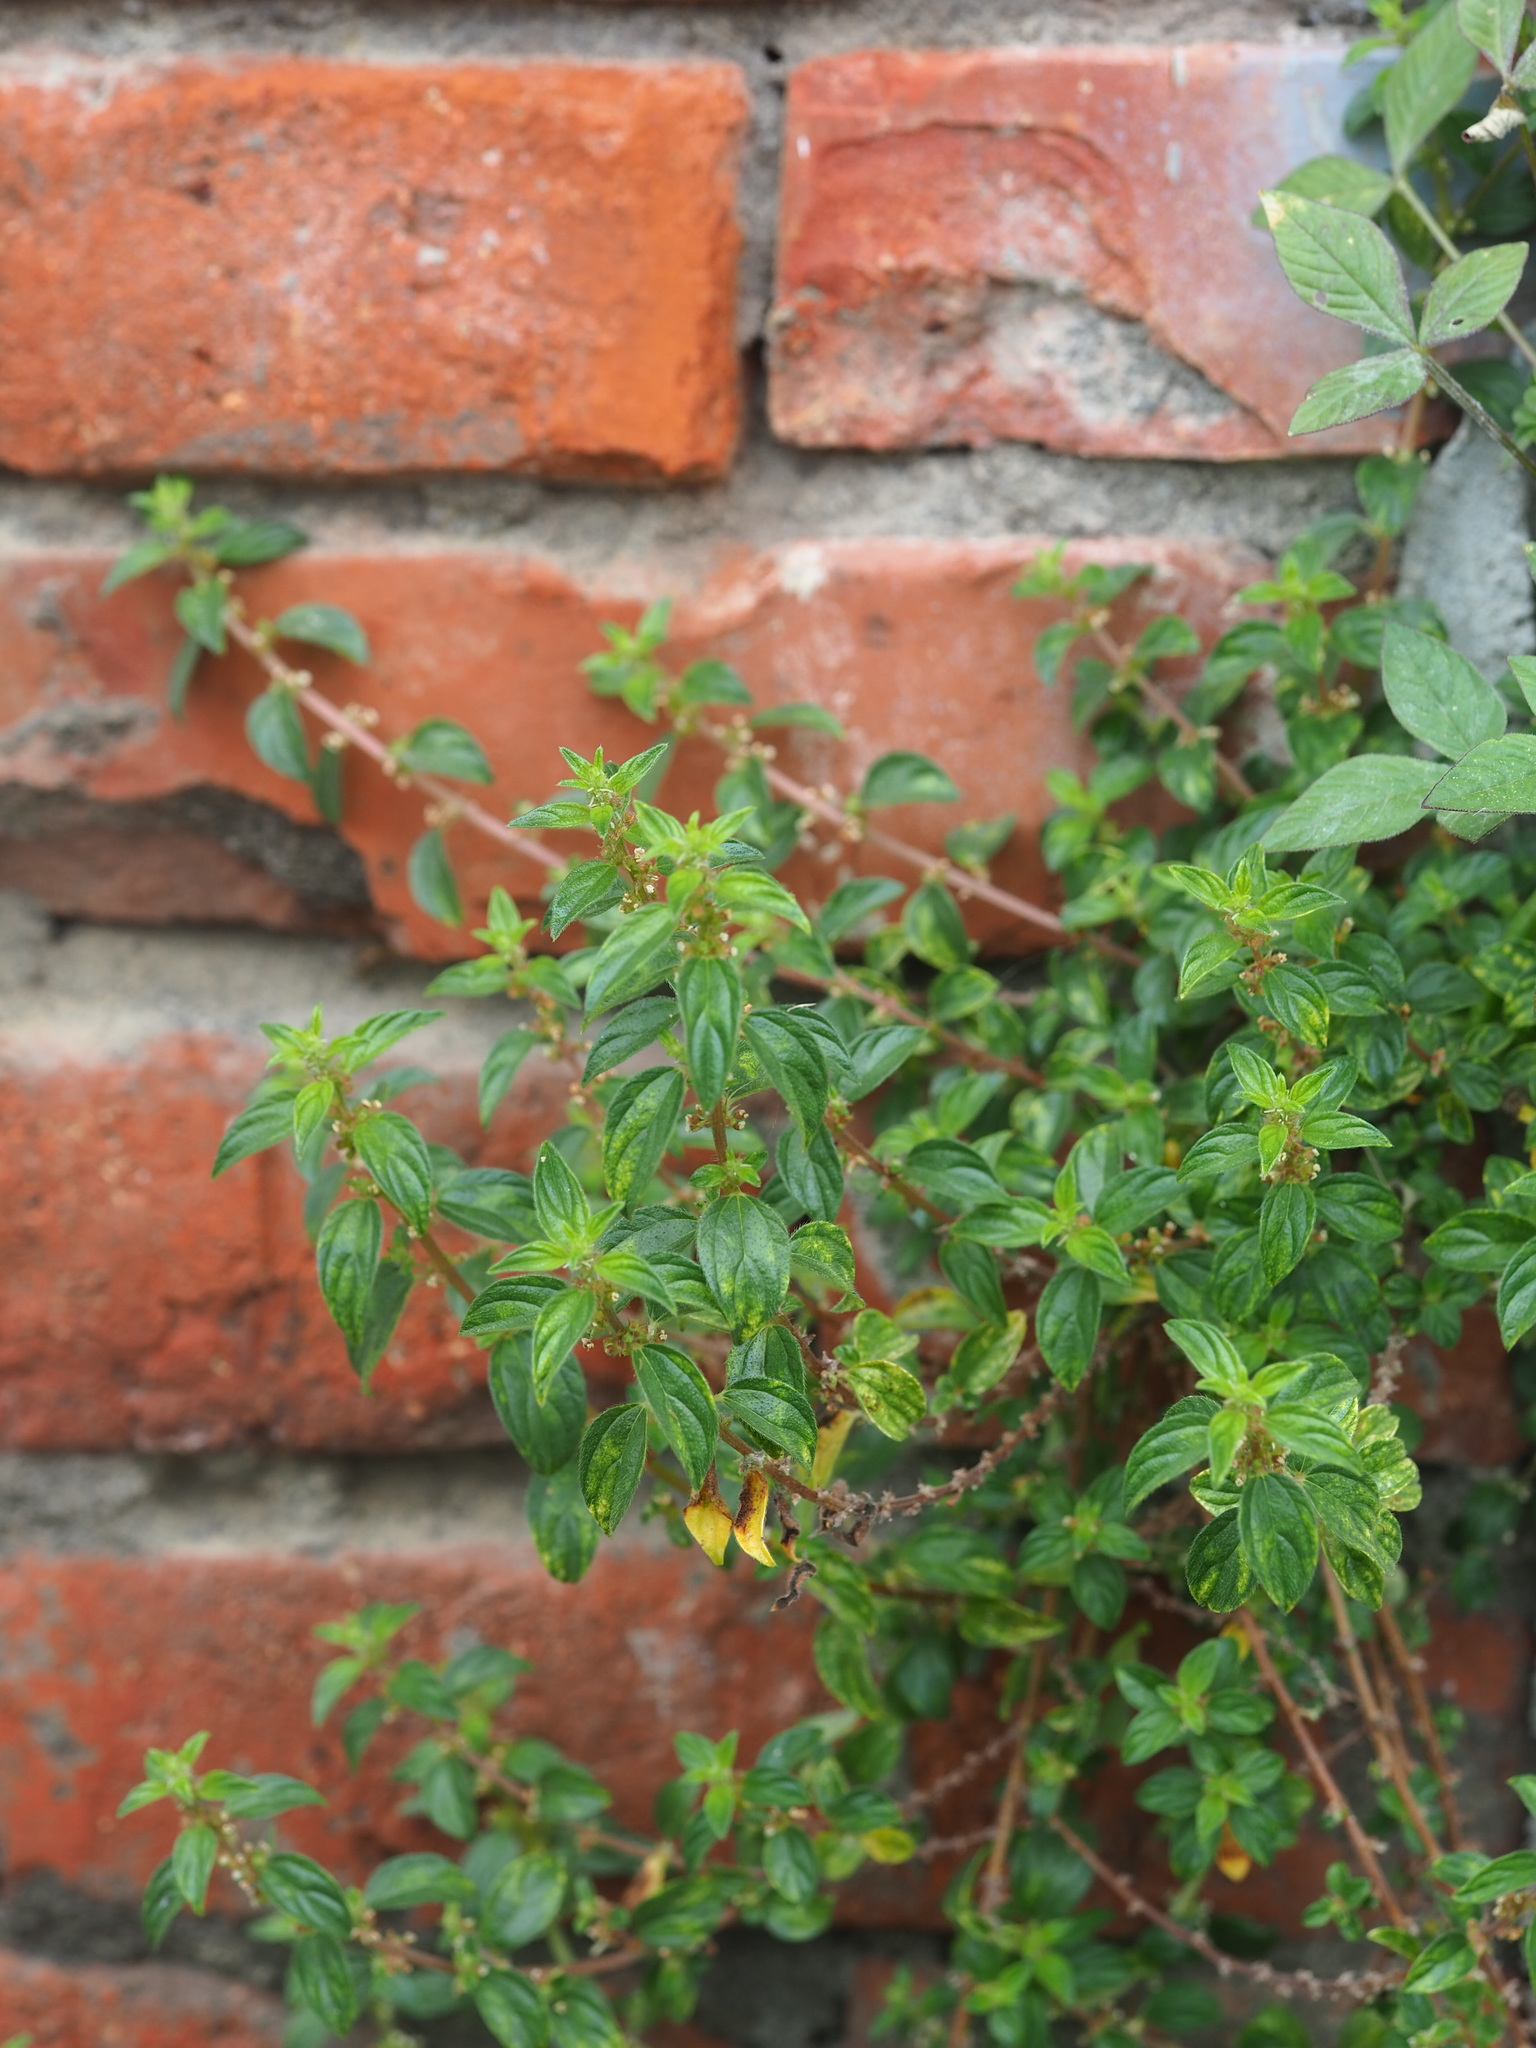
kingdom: Plantae
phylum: Tracheophyta
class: Magnoliopsida
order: Rosales
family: Urticaceae
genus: Pouzolzia
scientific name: Pouzolzia zeylanica
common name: Graceful pouzolzsbush
